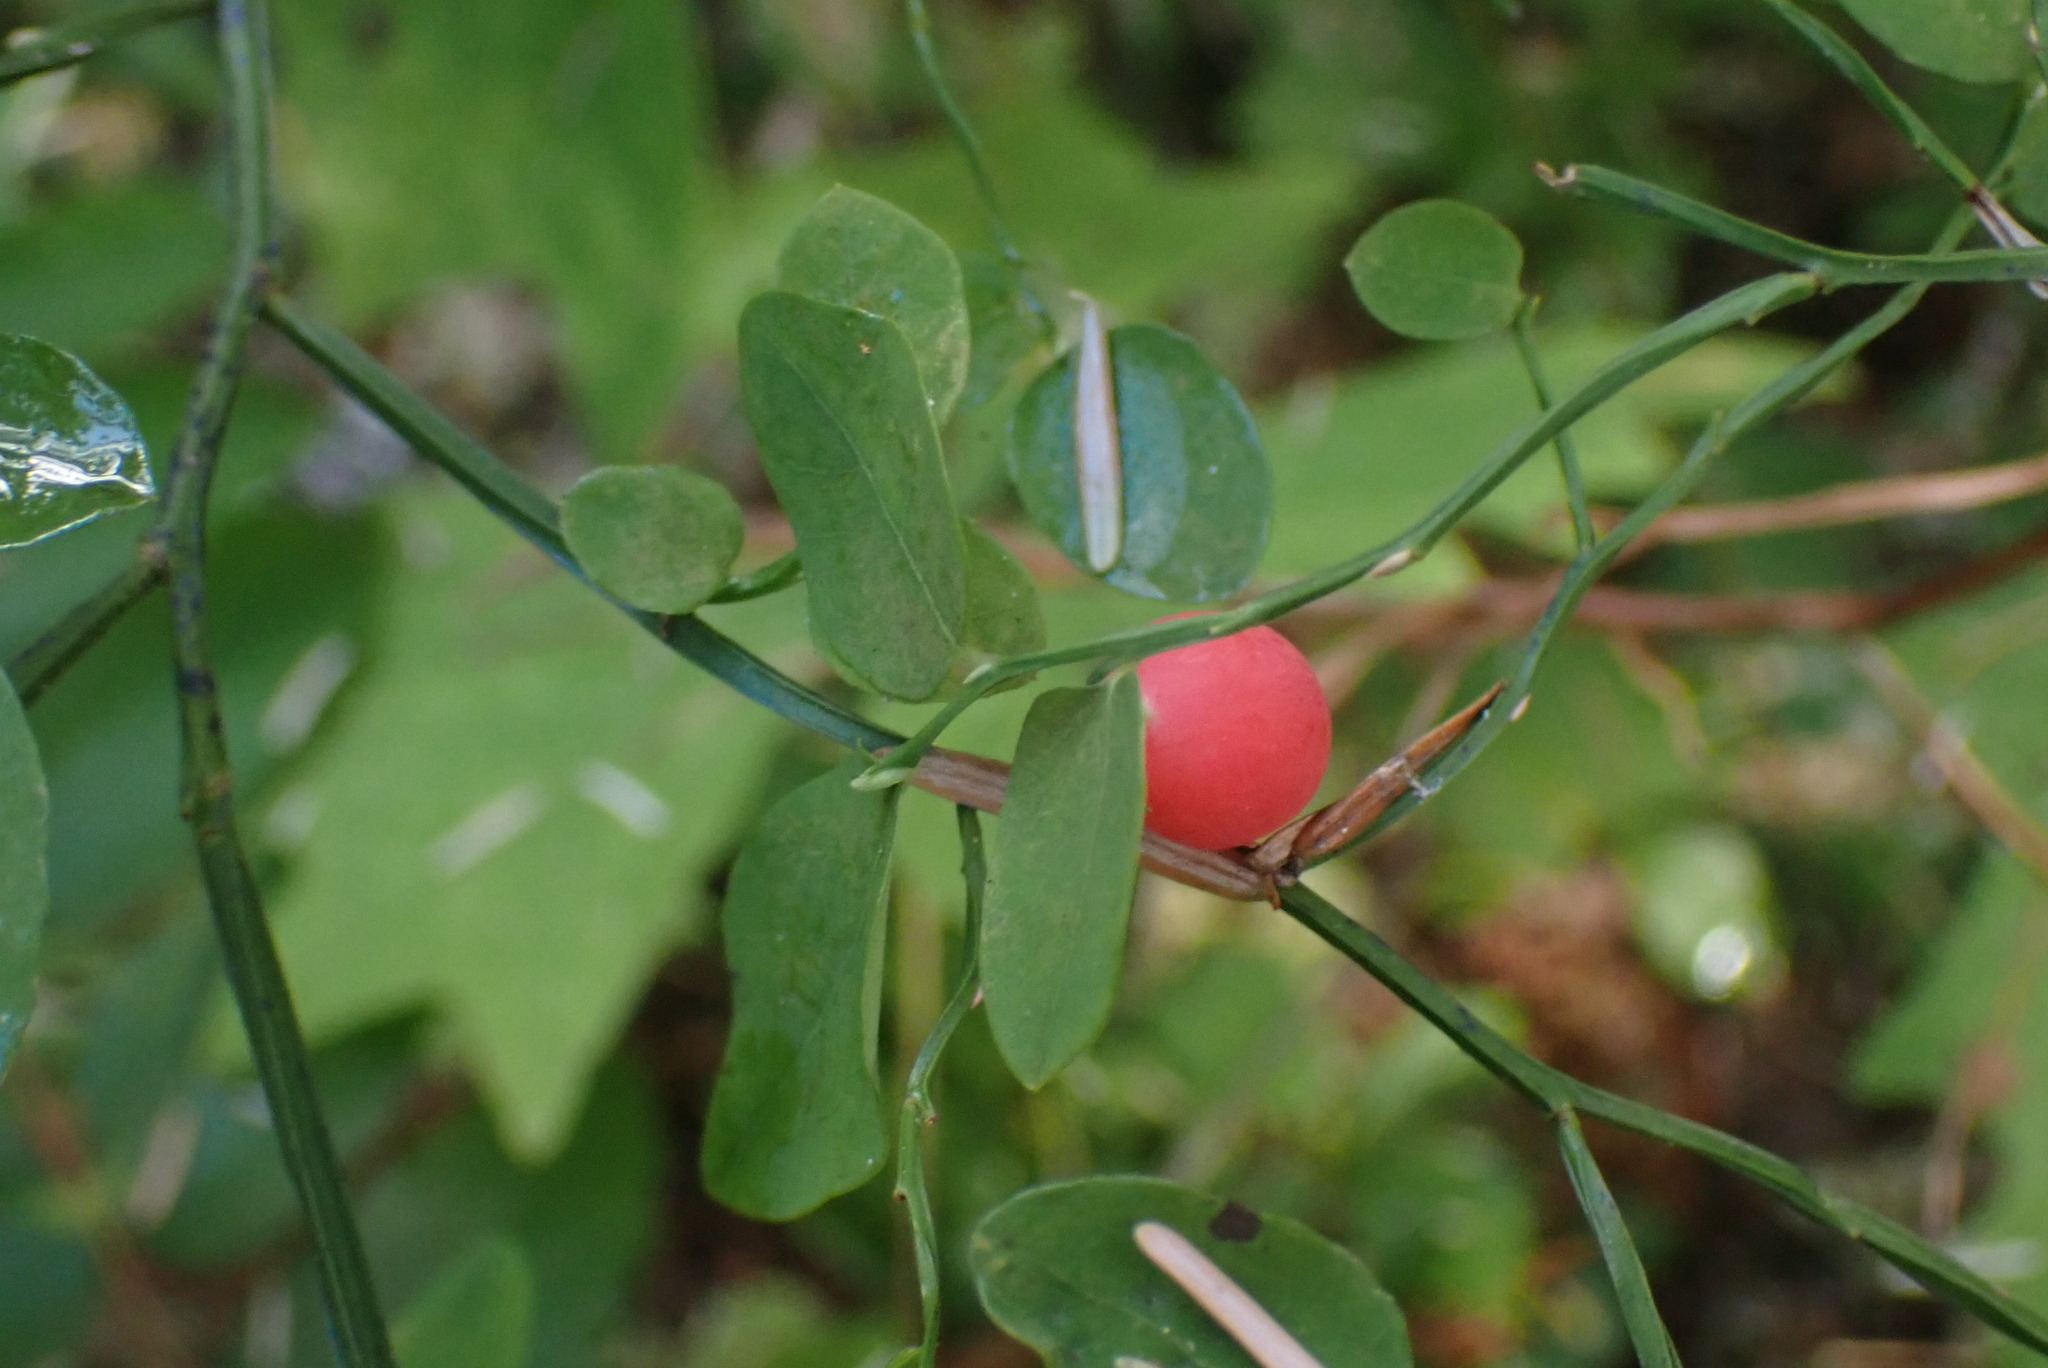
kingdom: Plantae
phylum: Tracheophyta
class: Magnoliopsida
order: Ericales
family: Ericaceae
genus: Vaccinium
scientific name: Vaccinium parvifolium
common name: Red-huckleberry
